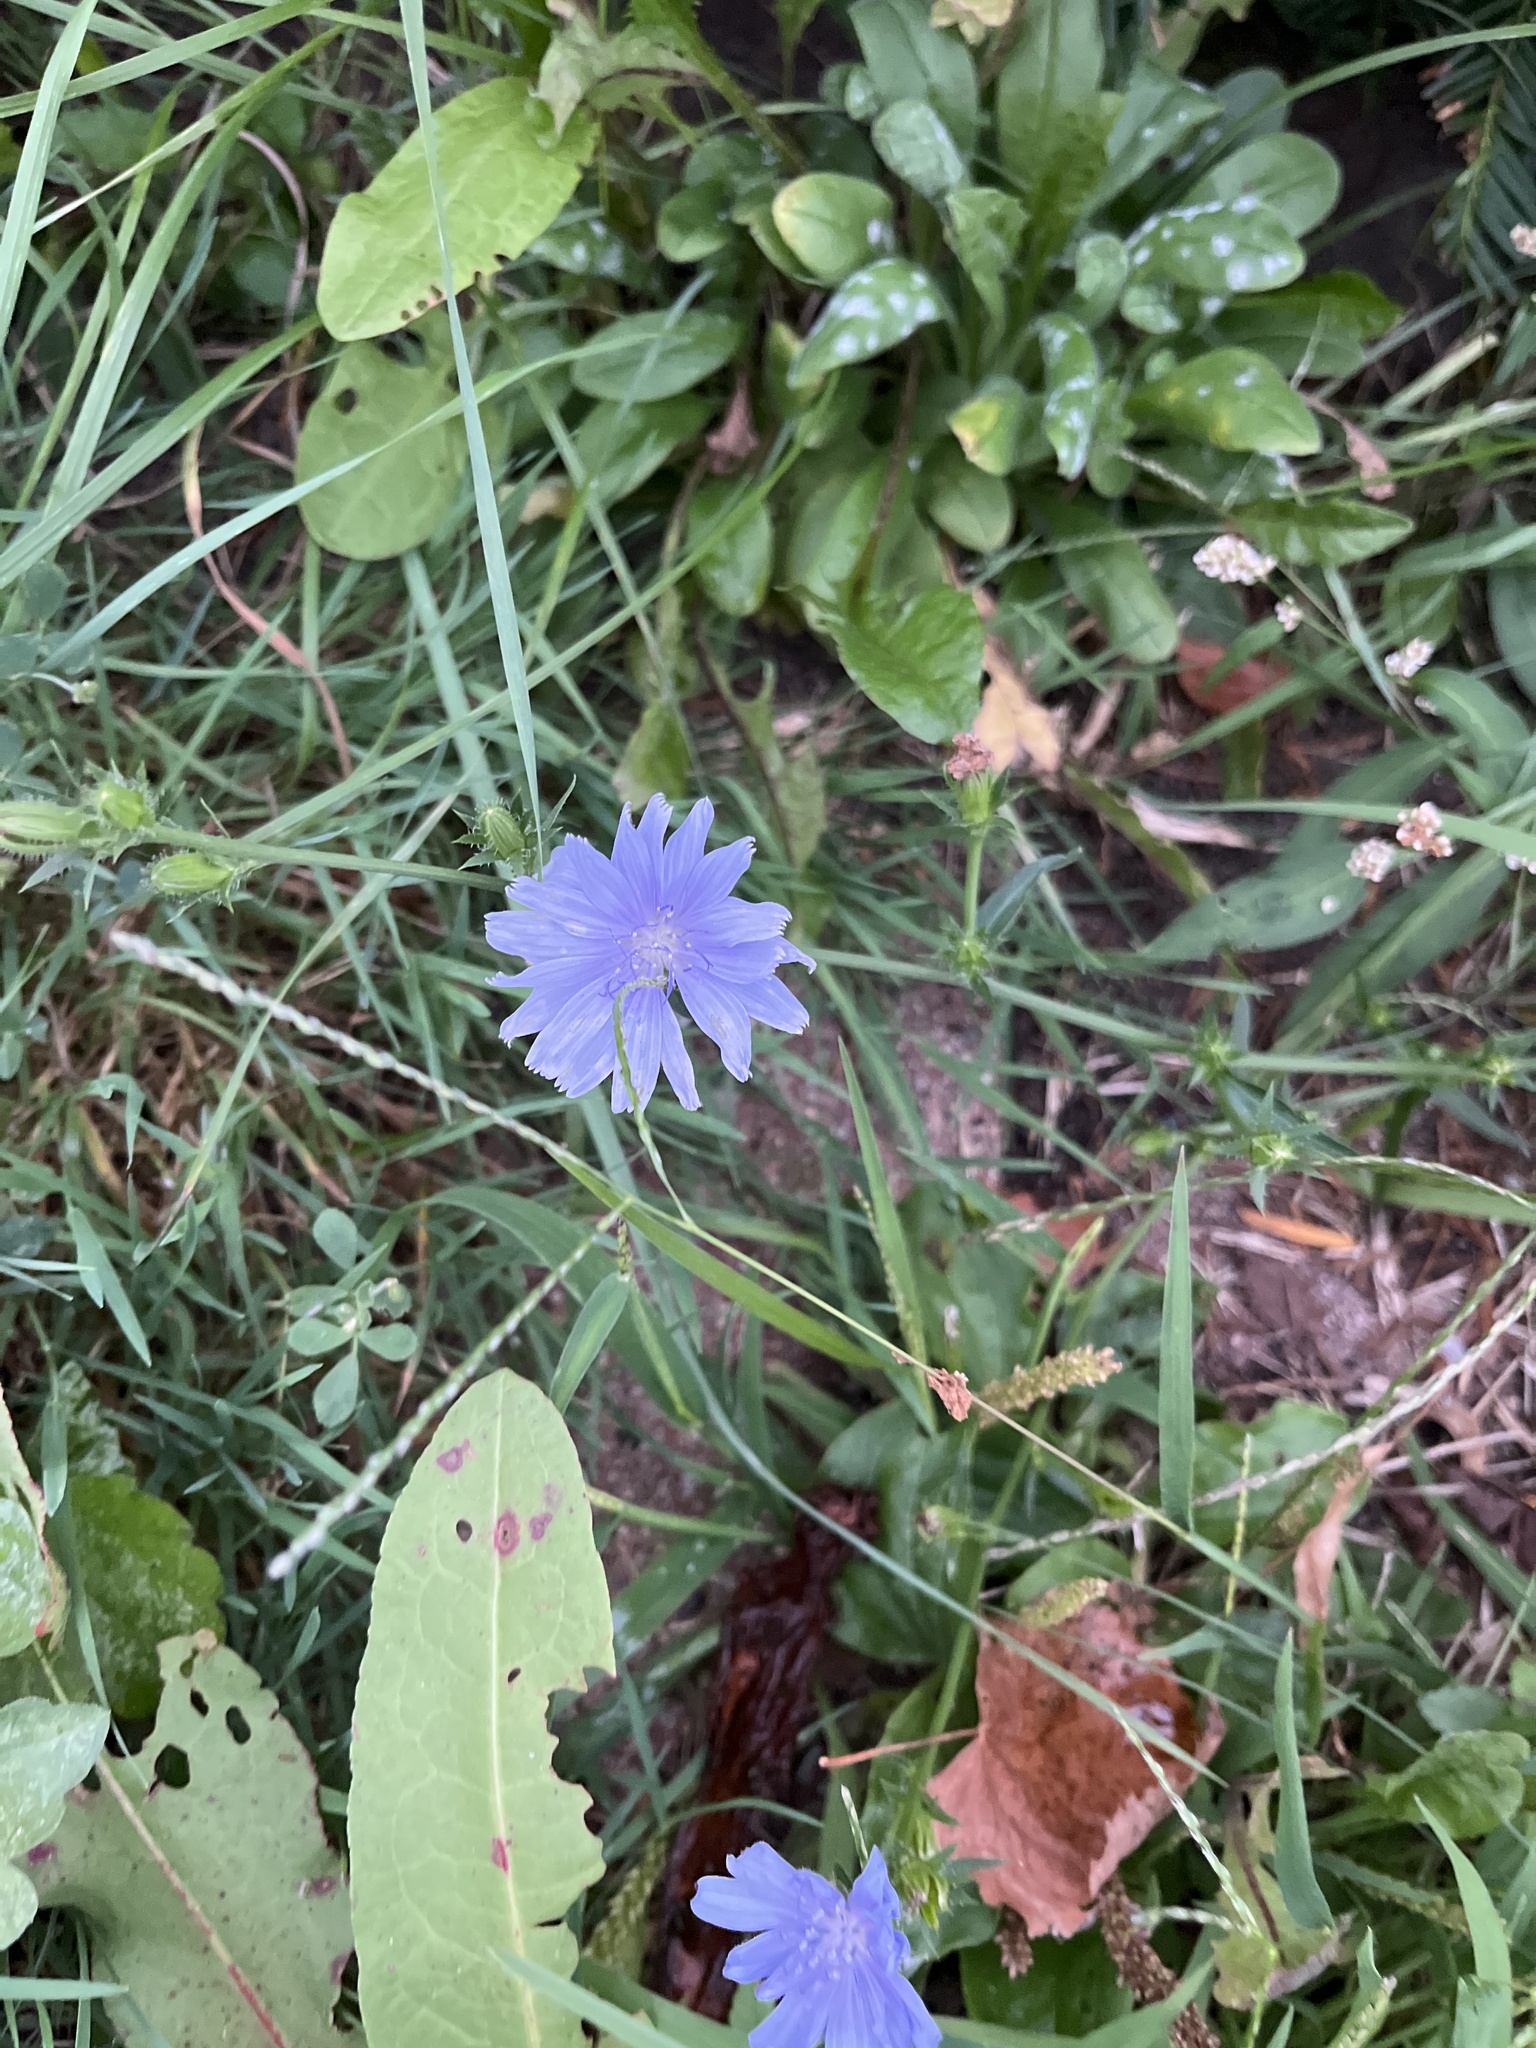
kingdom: Plantae
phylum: Tracheophyta
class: Magnoliopsida
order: Asterales
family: Asteraceae
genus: Cichorium
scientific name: Cichorium intybus
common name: Chicory
